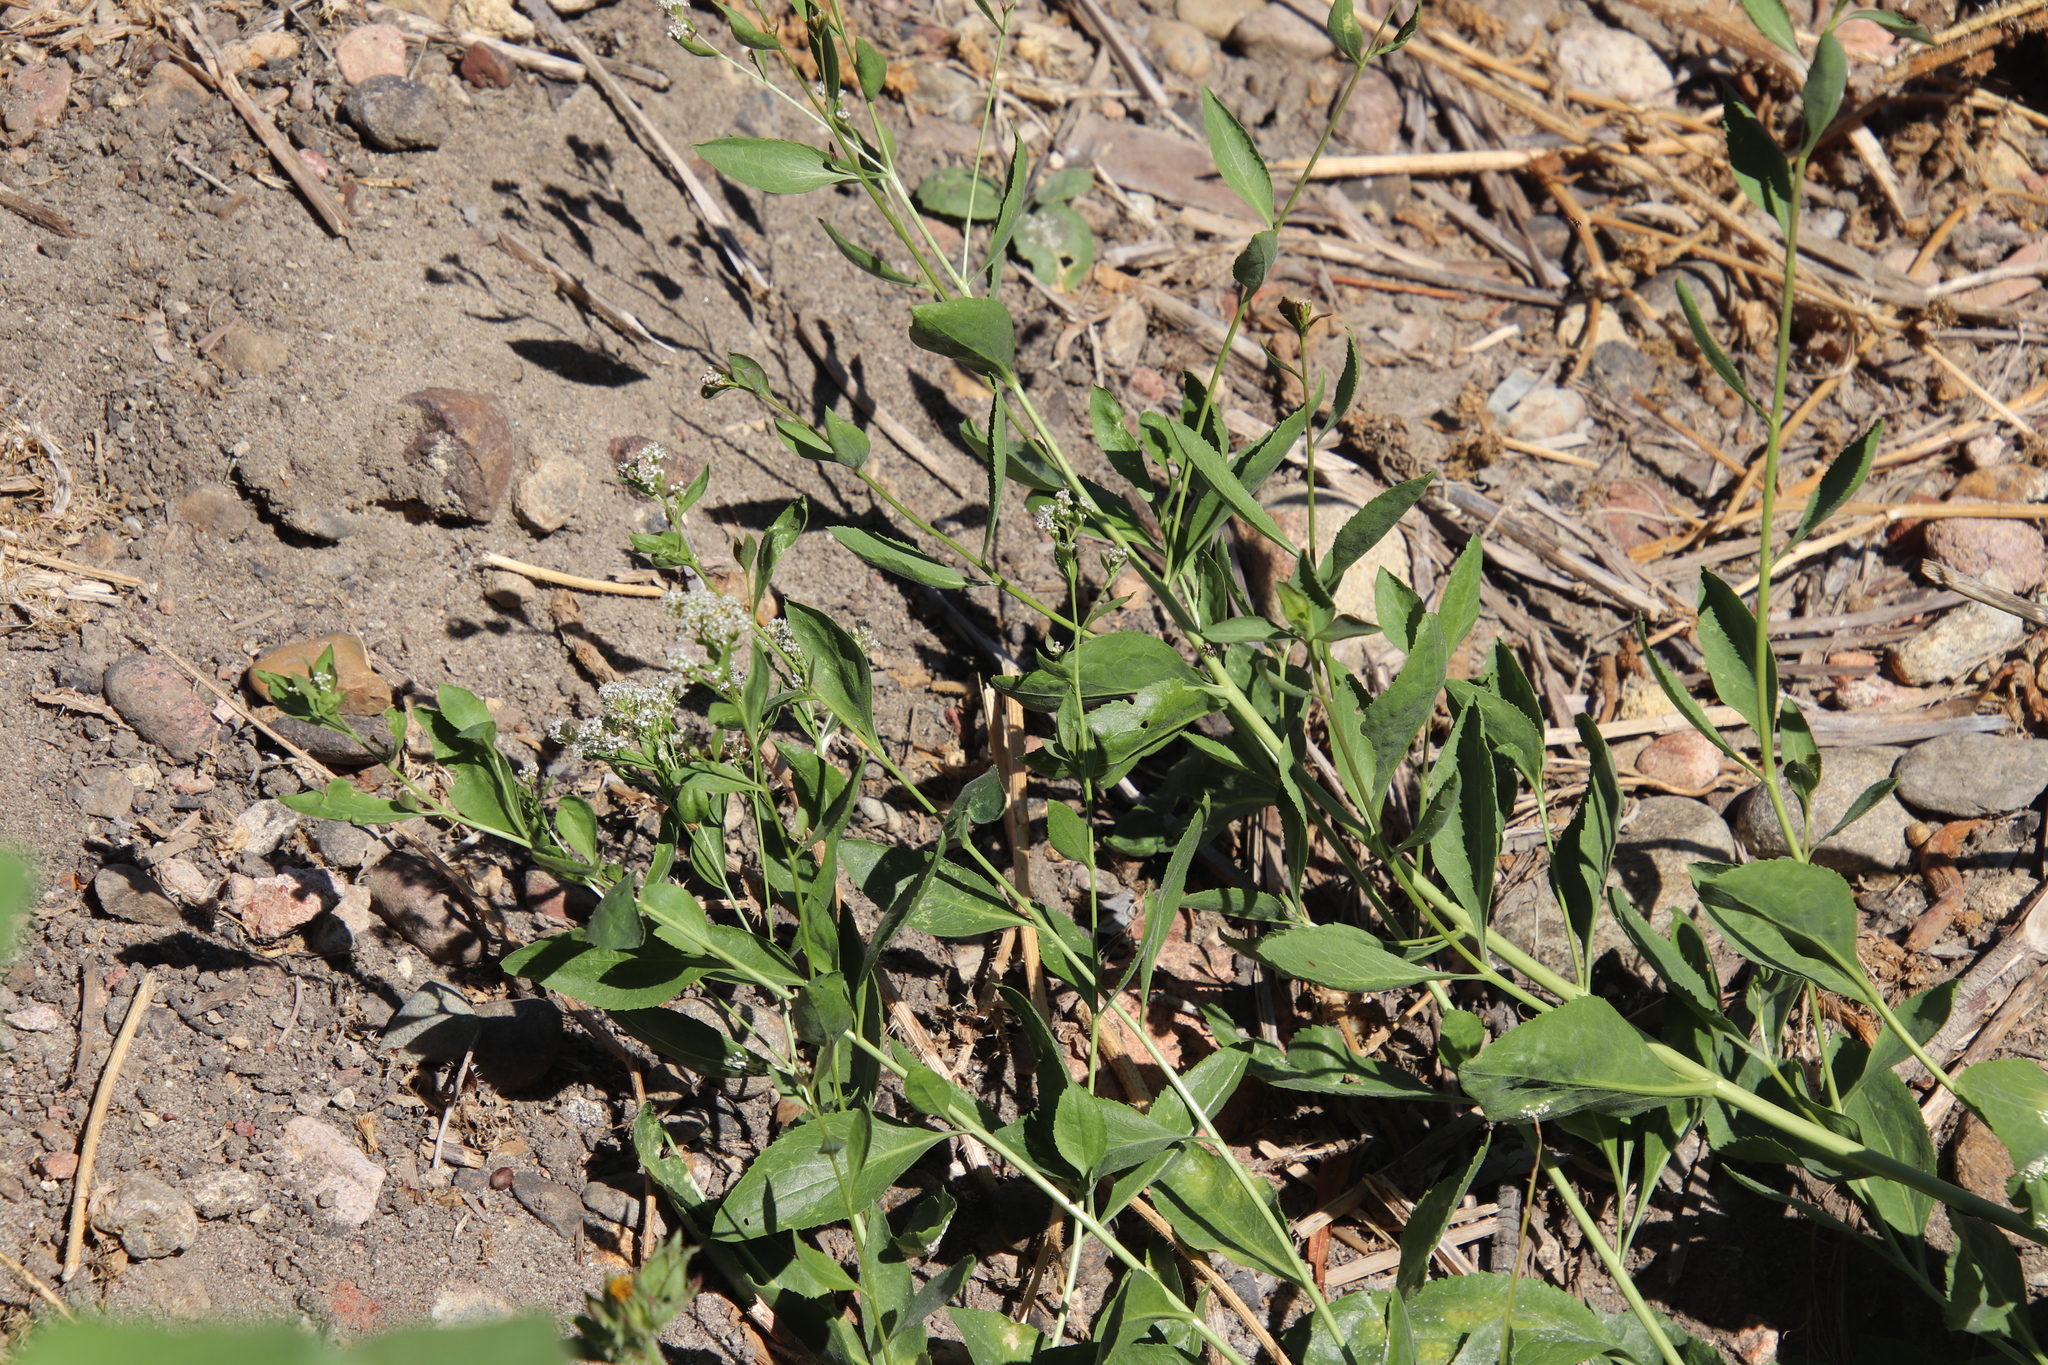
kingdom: Plantae
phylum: Tracheophyta
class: Magnoliopsida
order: Brassicales
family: Brassicaceae
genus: Lepidium
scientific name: Lepidium latifolium
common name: Dittander
